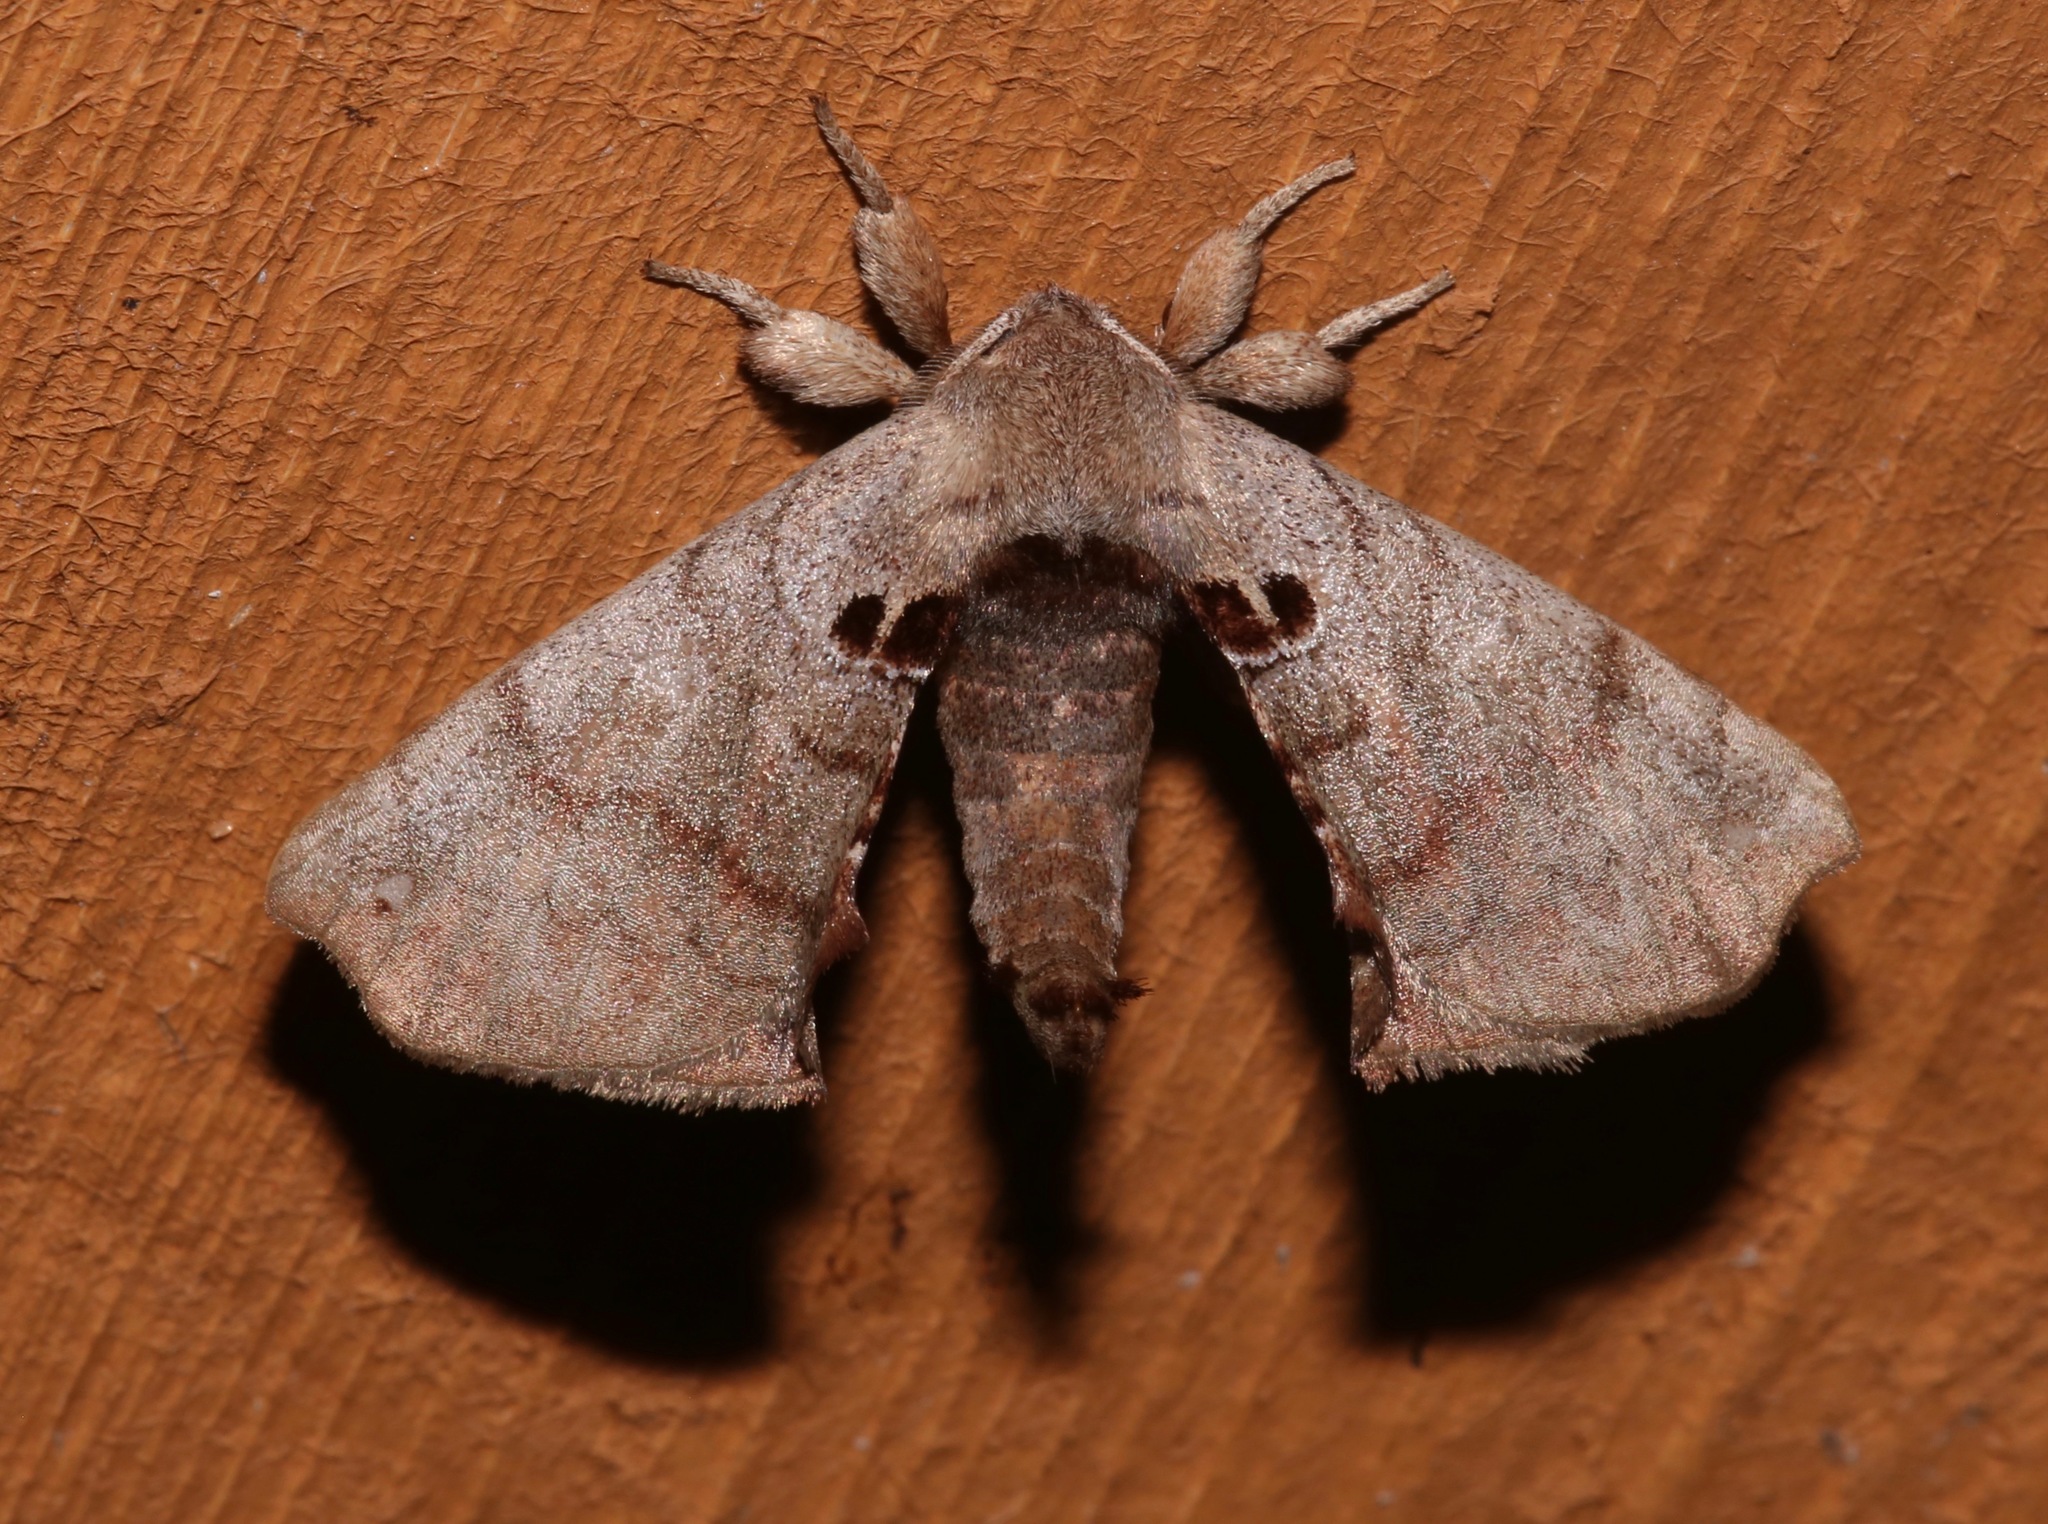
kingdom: Animalia
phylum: Arthropoda
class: Insecta
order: Lepidoptera
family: Apatelodidae
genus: Hygrochroa
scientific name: Hygrochroa Apatelodes torrefacta
